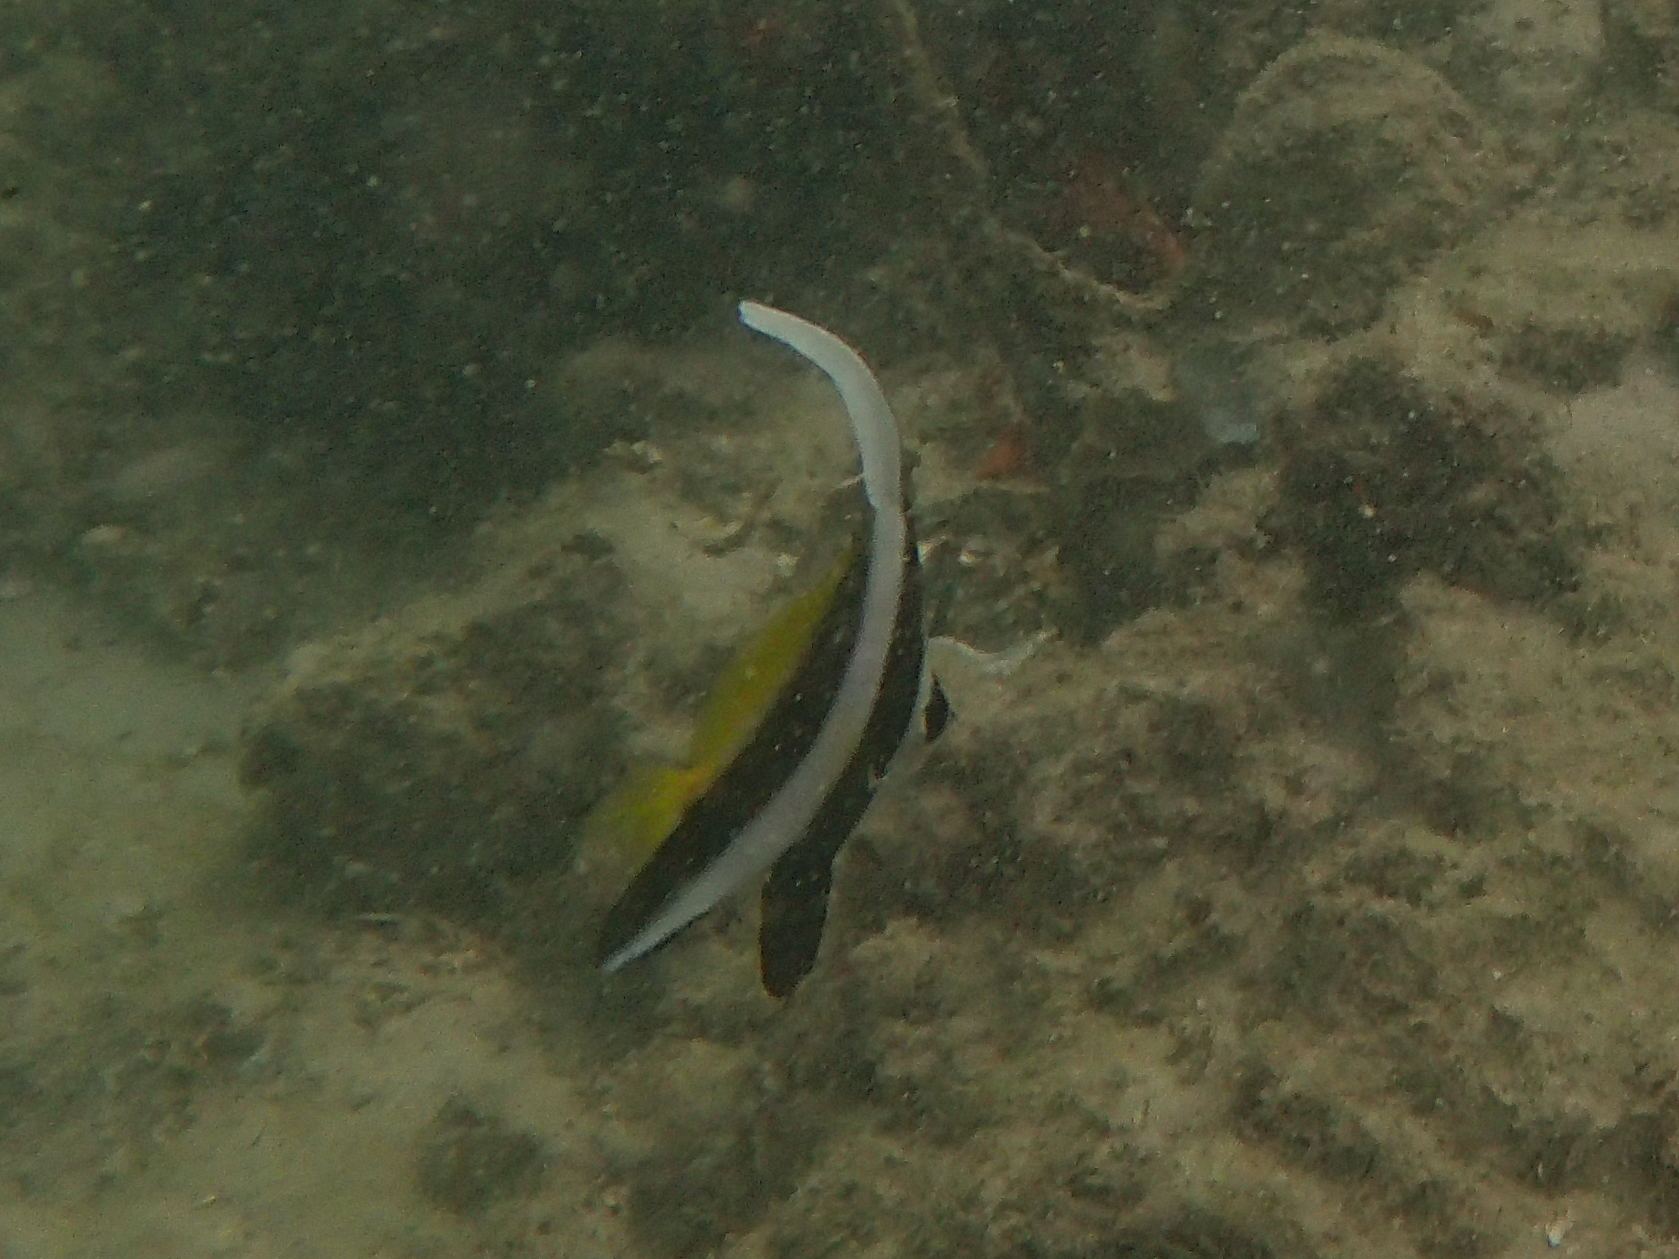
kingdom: Animalia
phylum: Chordata
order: Perciformes
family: Chaetodontidae
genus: Heniochus
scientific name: Heniochus acuminatus
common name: Pennant coralfish
